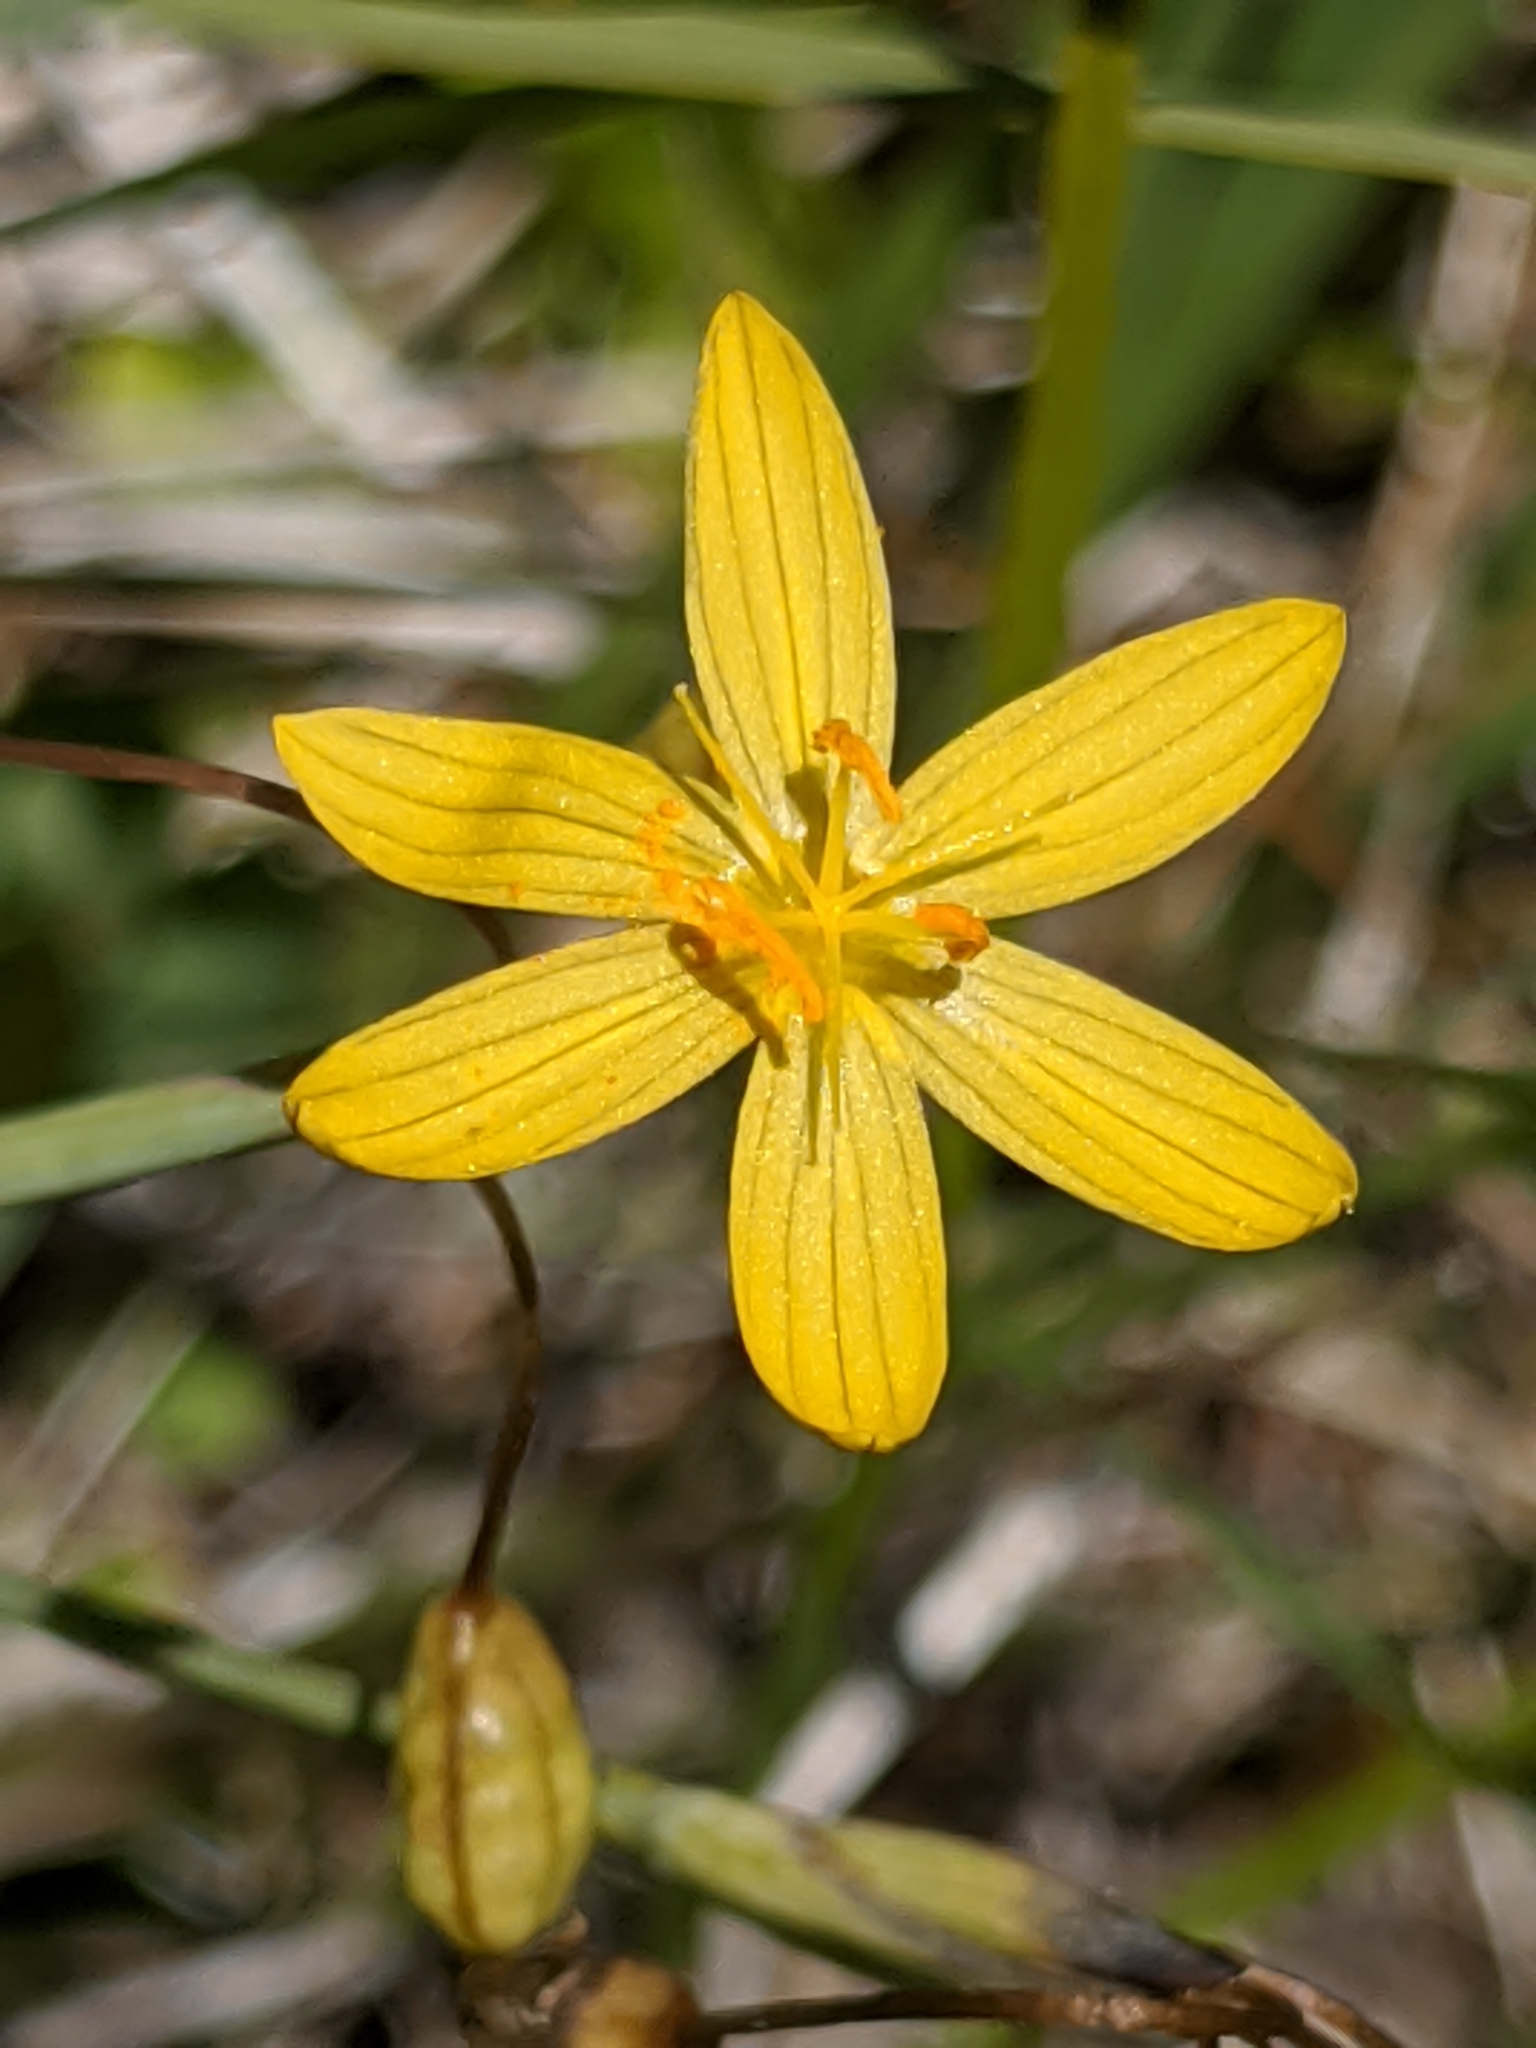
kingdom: Plantae
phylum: Tracheophyta
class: Liliopsida
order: Asparagales
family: Iridaceae
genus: Sisyrinchium
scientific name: Sisyrinchium elmeri
